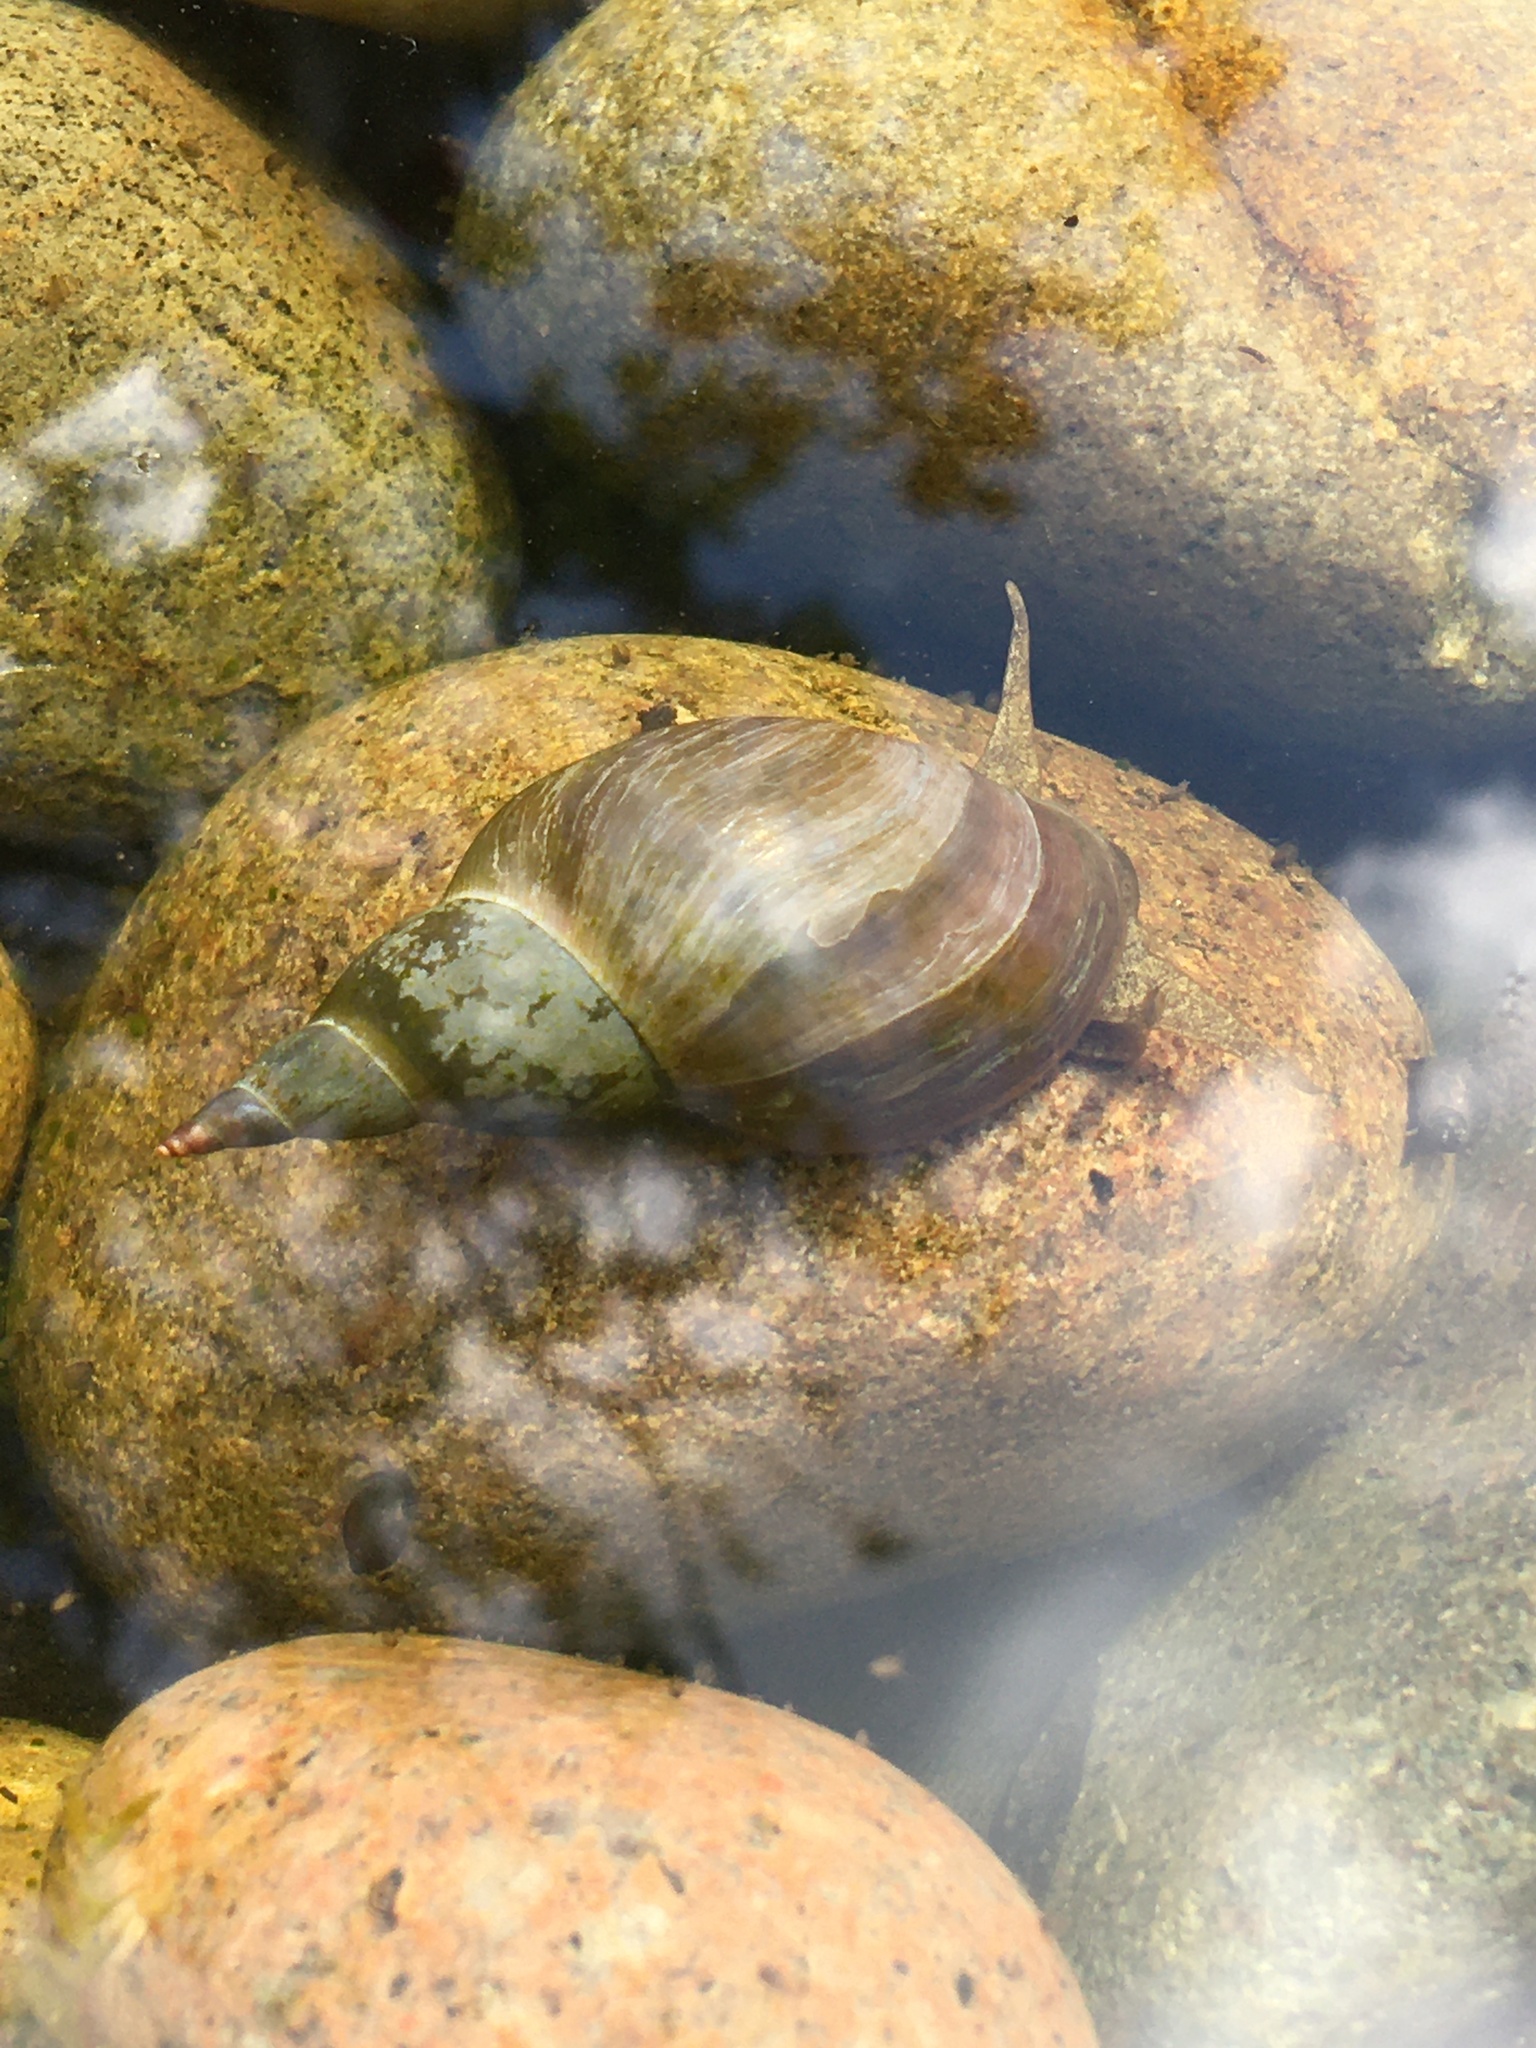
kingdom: Animalia
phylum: Mollusca
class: Gastropoda
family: Lymnaeidae
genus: Lymnaea
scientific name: Lymnaea stagnalis
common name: Great pond snail
